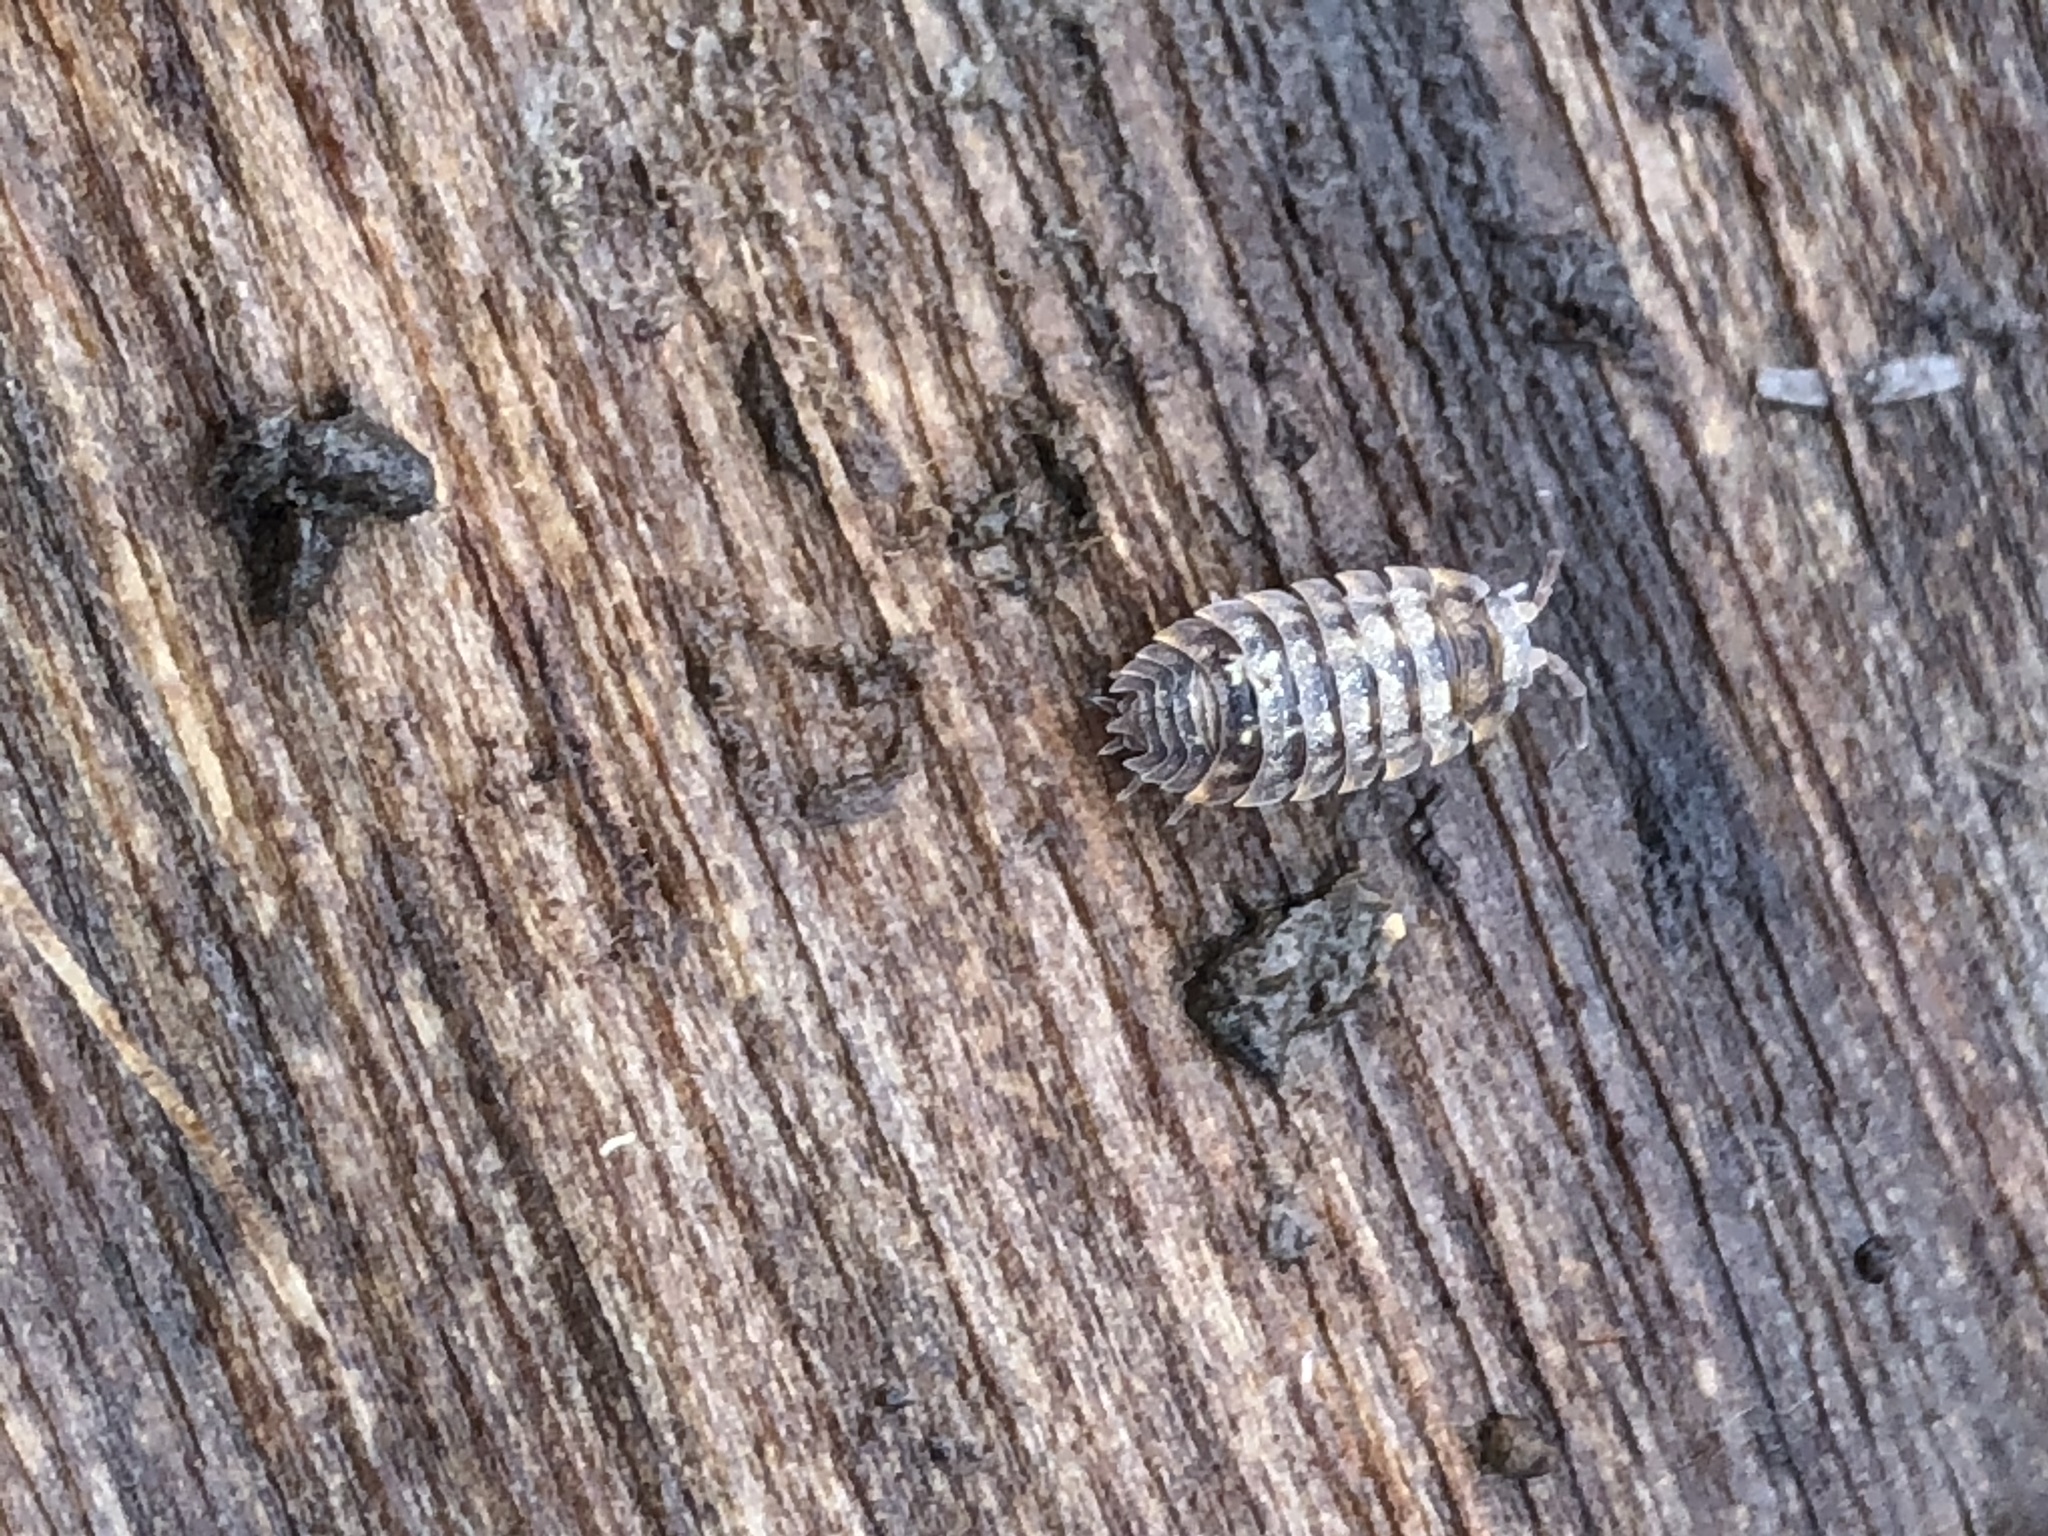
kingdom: Animalia
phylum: Arthropoda
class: Malacostraca
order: Isopoda
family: Oniscidae
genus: Oniscus
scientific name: Oniscus asellus
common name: Common shiny woodlouse
